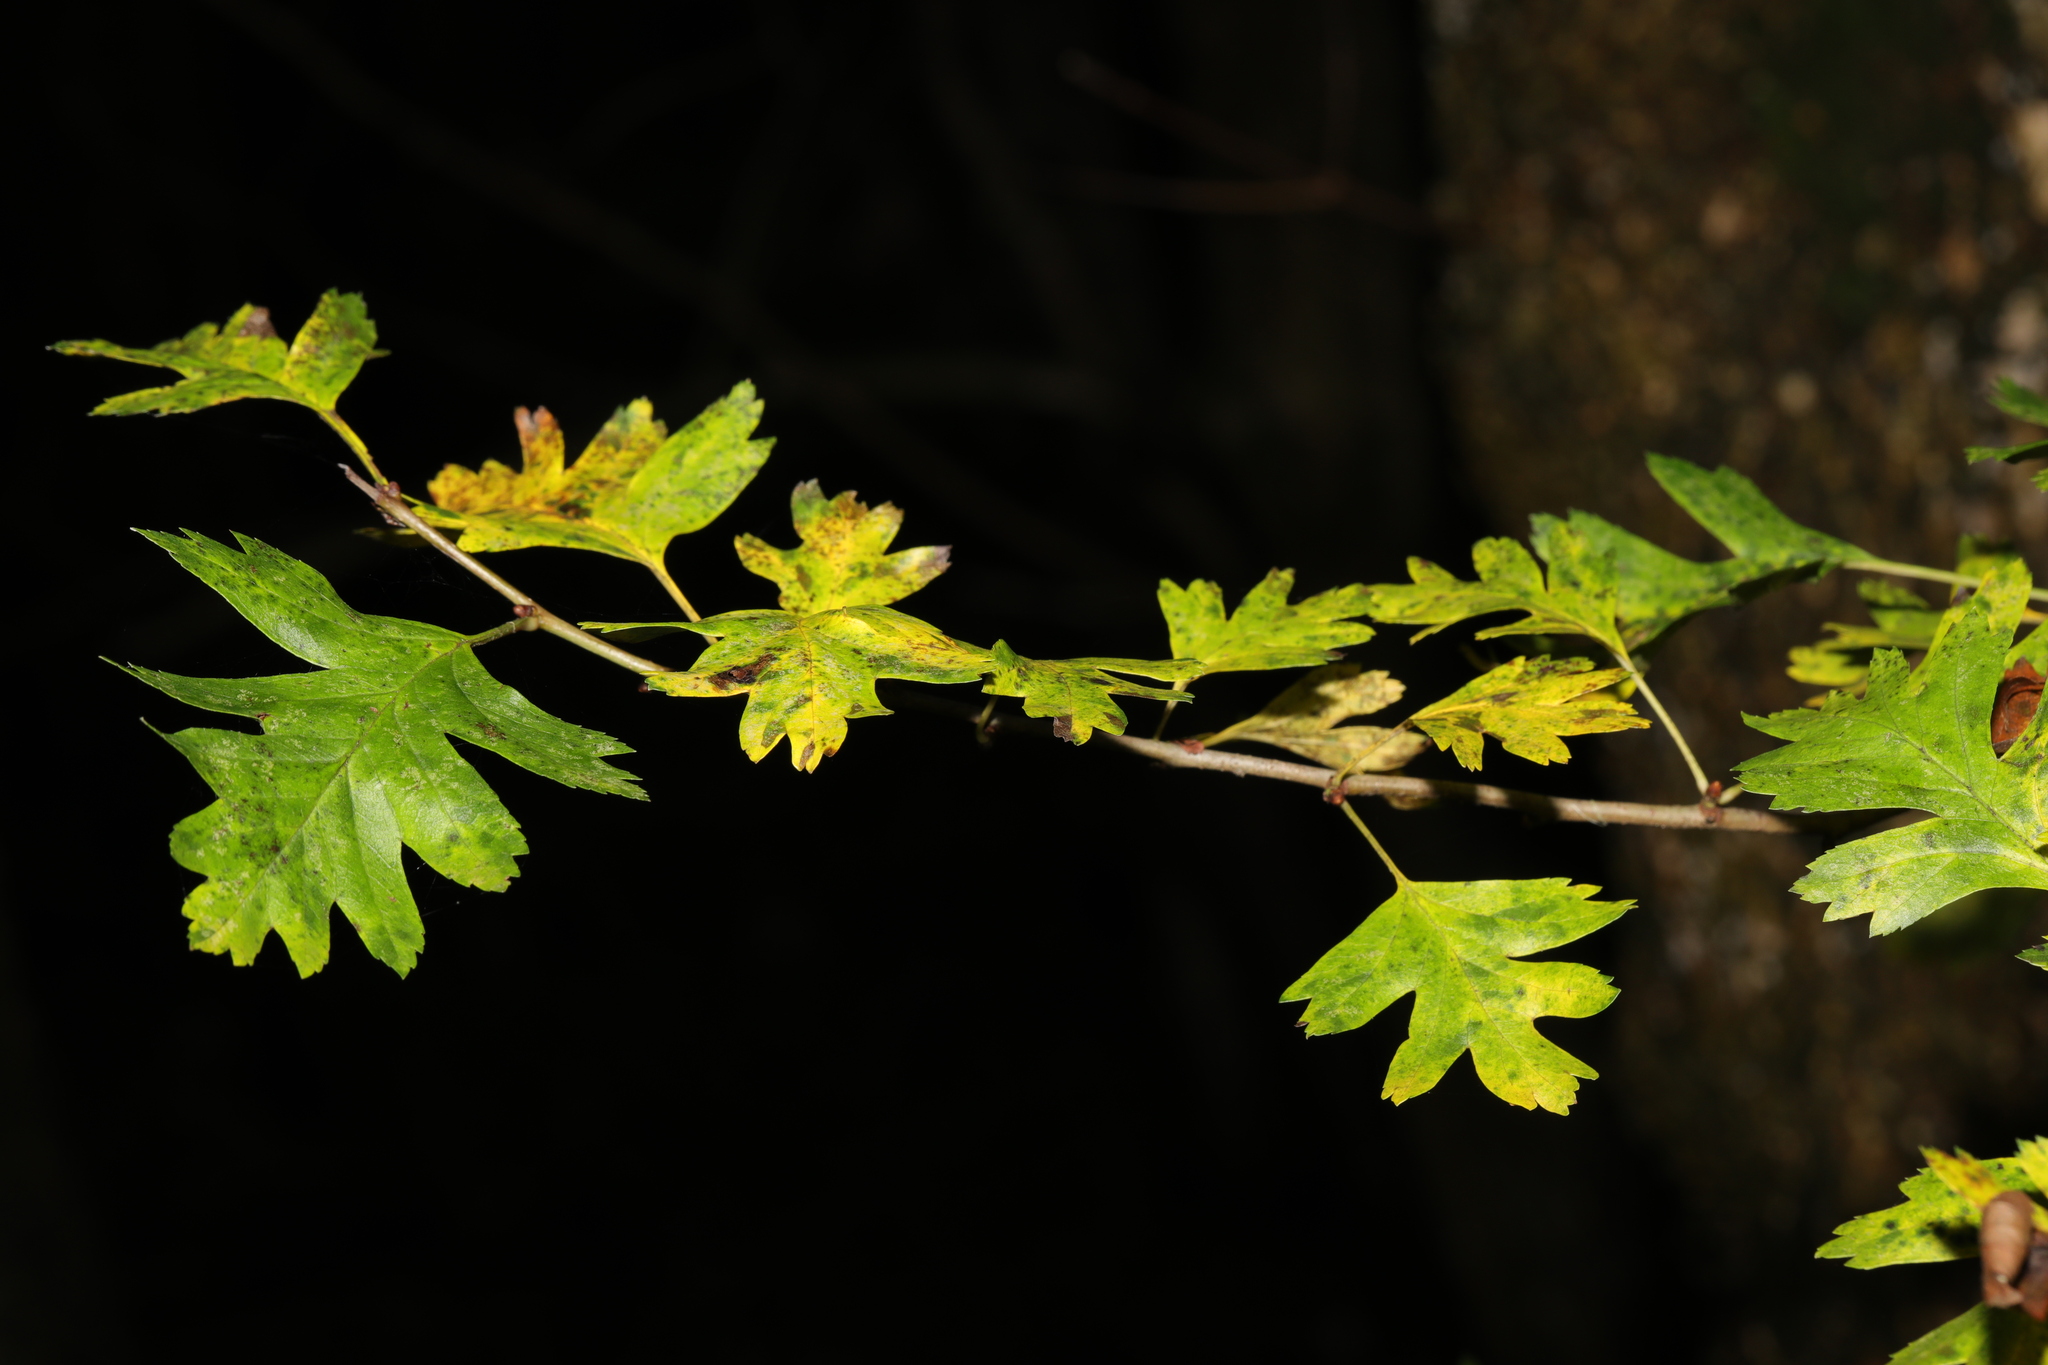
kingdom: Plantae
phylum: Tracheophyta
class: Magnoliopsida
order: Rosales
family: Rosaceae
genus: Crataegus
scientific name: Crataegus monogyna
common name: Hawthorn
